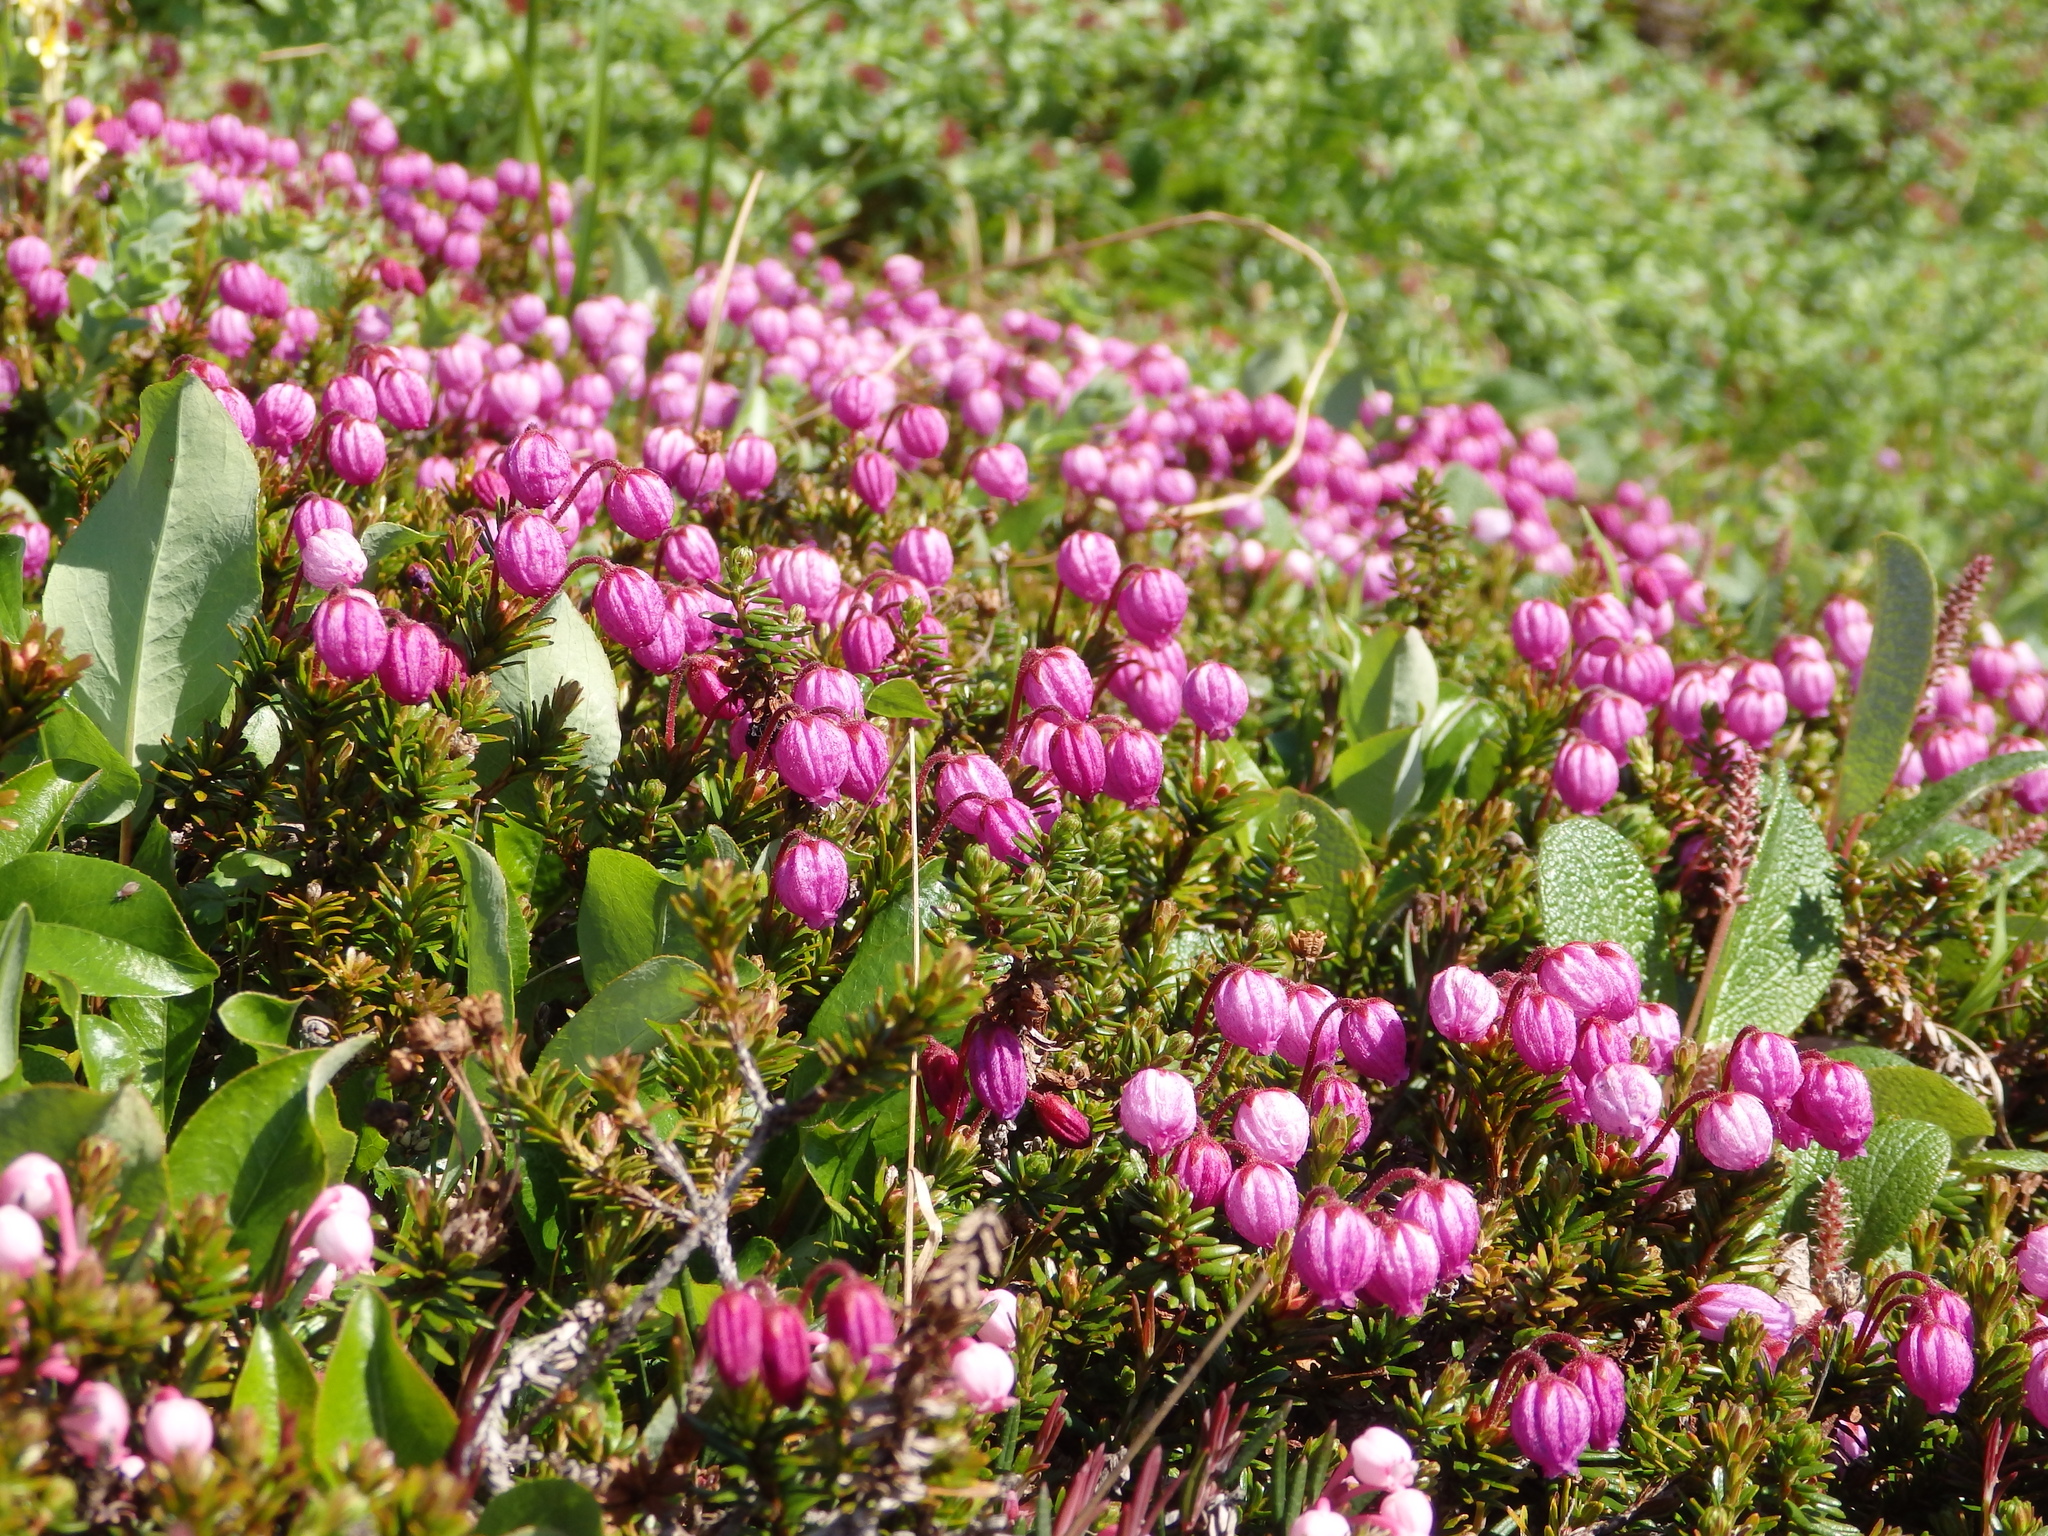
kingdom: Plantae
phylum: Tracheophyta
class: Magnoliopsida
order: Ericales
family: Ericaceae
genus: Phyllodoce
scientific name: Phyllodoce caerulea
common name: Blue heath
